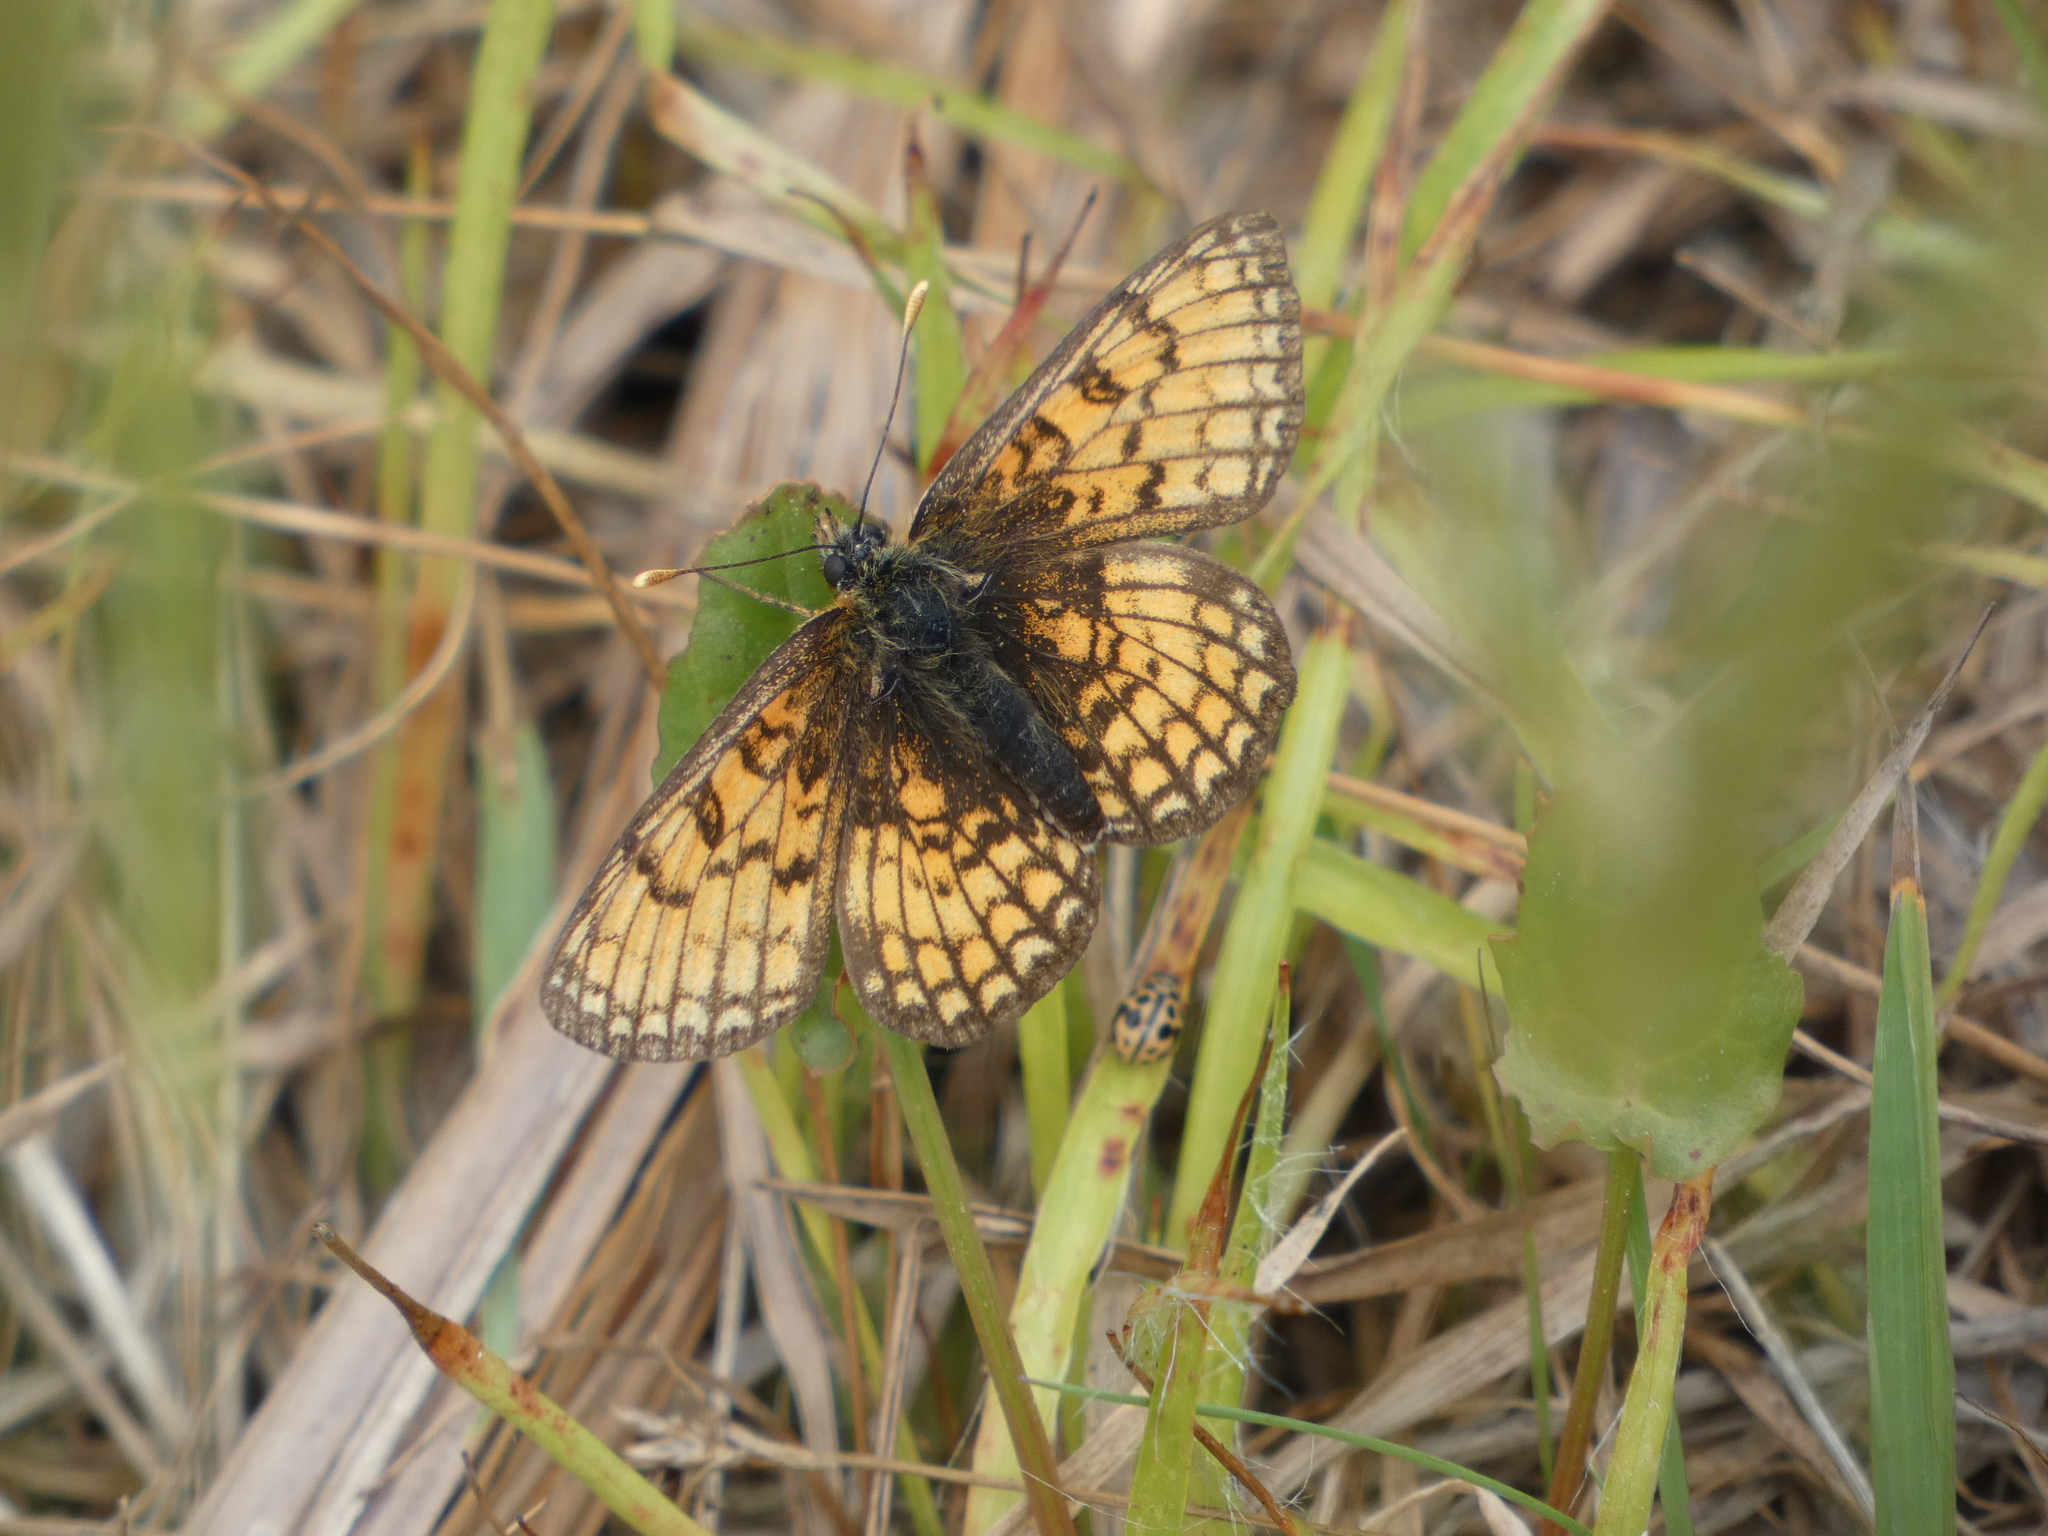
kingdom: Animalia
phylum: Arthropoda
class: Insecta
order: Lepidoptera
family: Nymphalidae
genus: Mellicta
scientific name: Mellicta parthenoides
